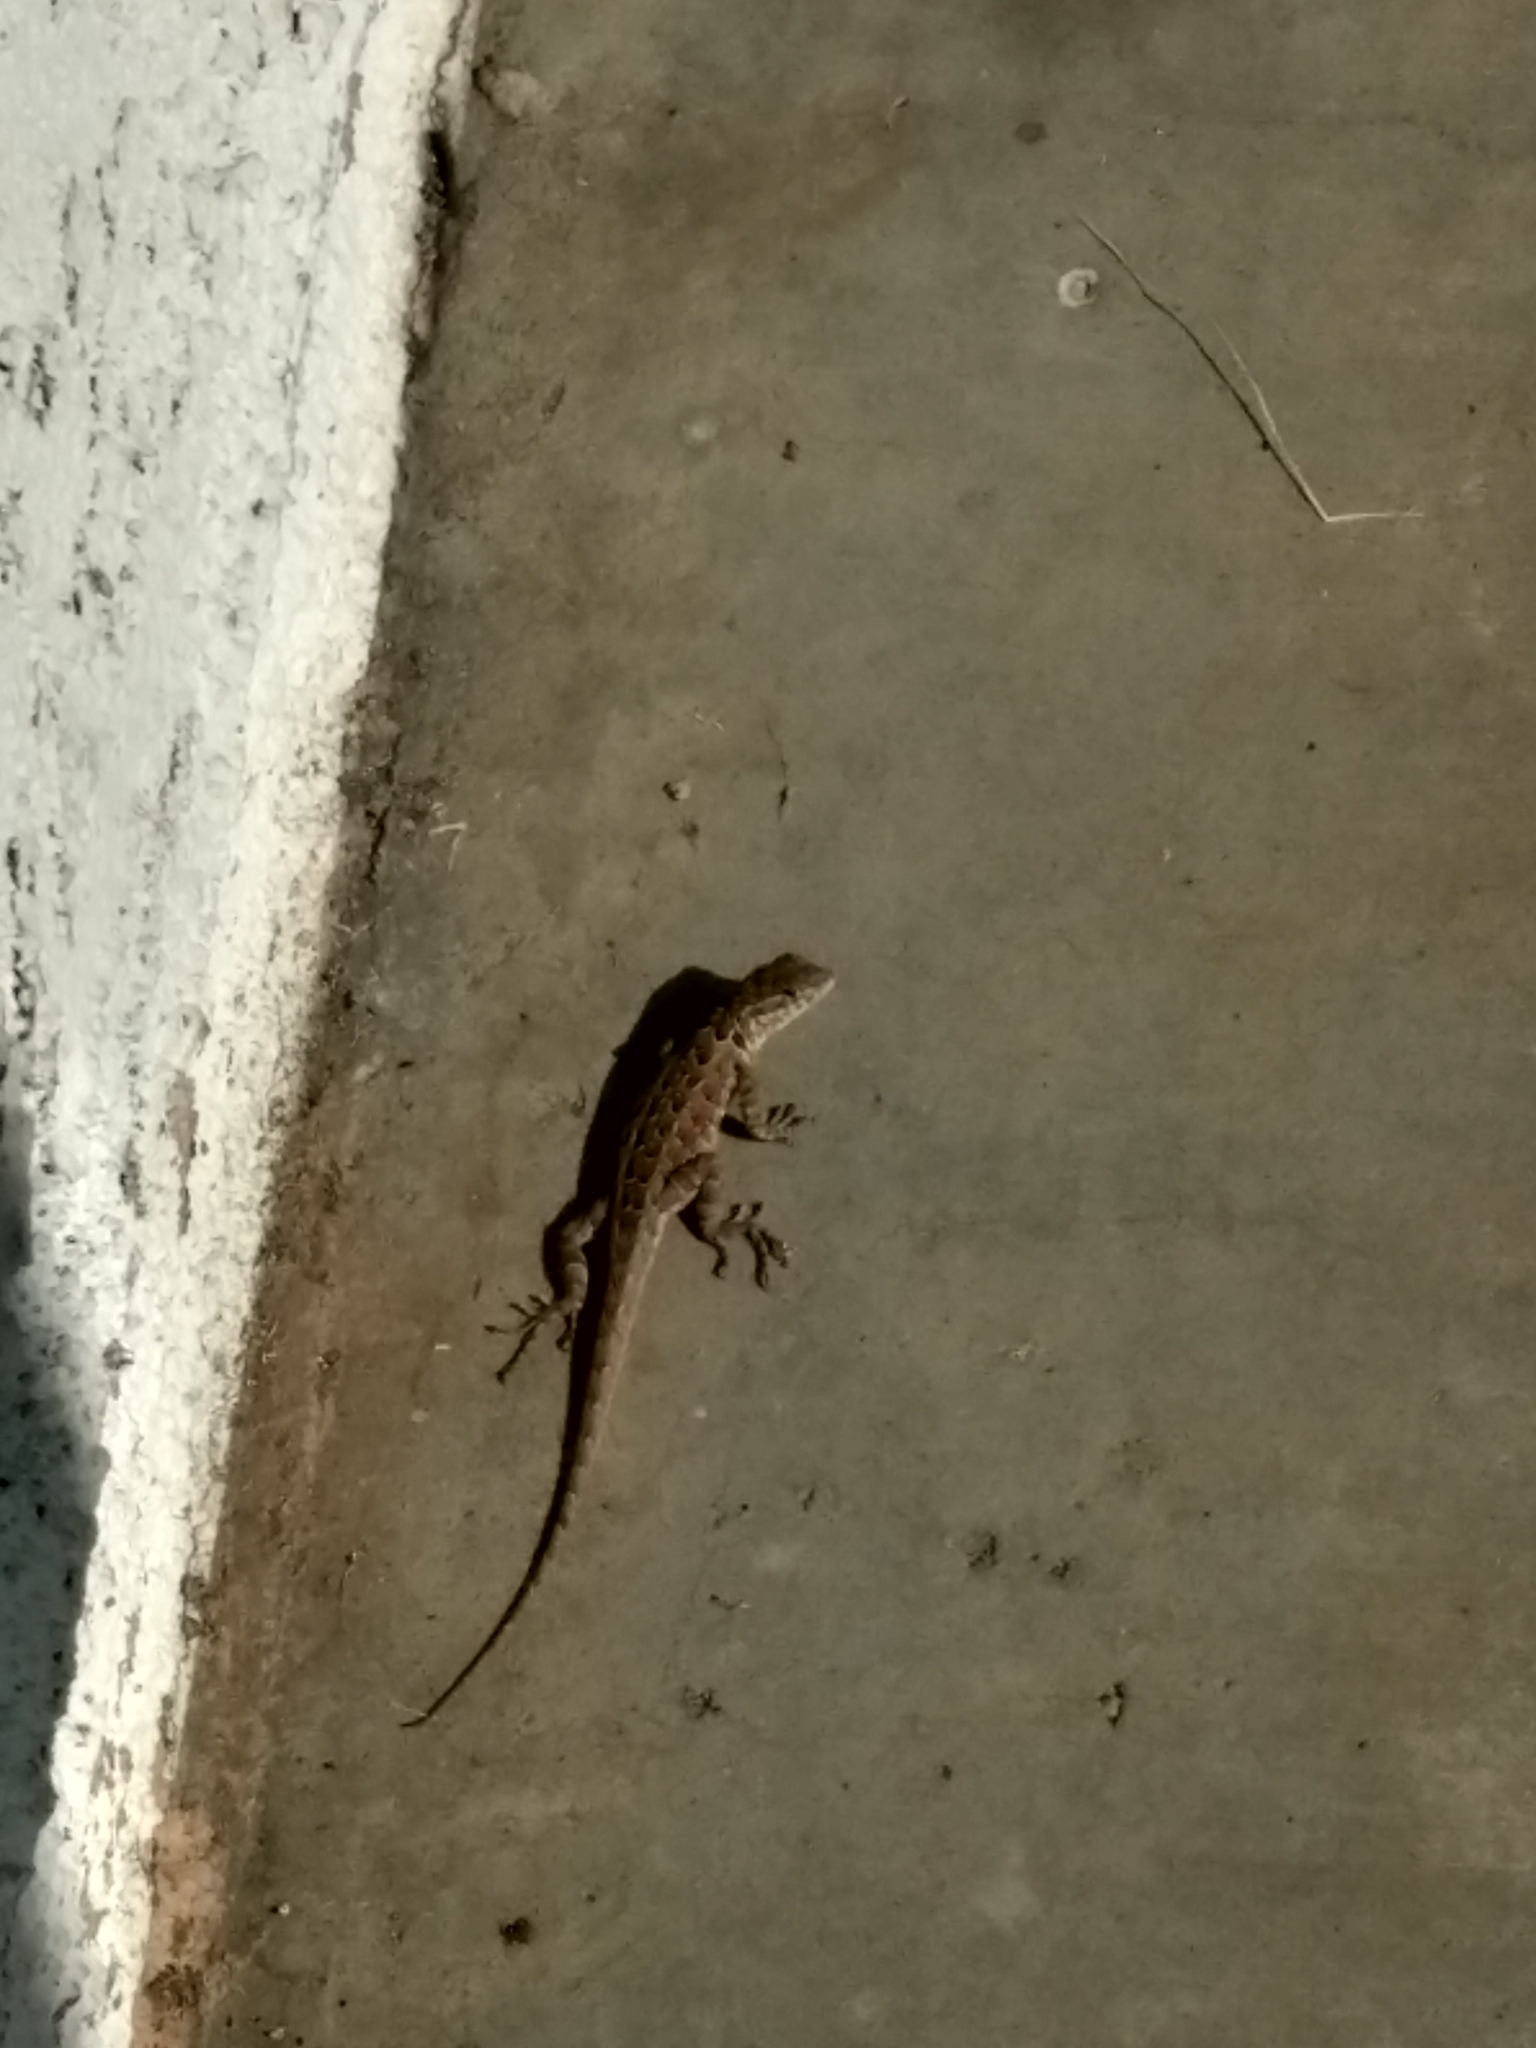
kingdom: Animalia
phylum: Chordata
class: Squamata
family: Phrynosomatidae
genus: Uta
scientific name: Uta stansburiana
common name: Side-blotched lizard
